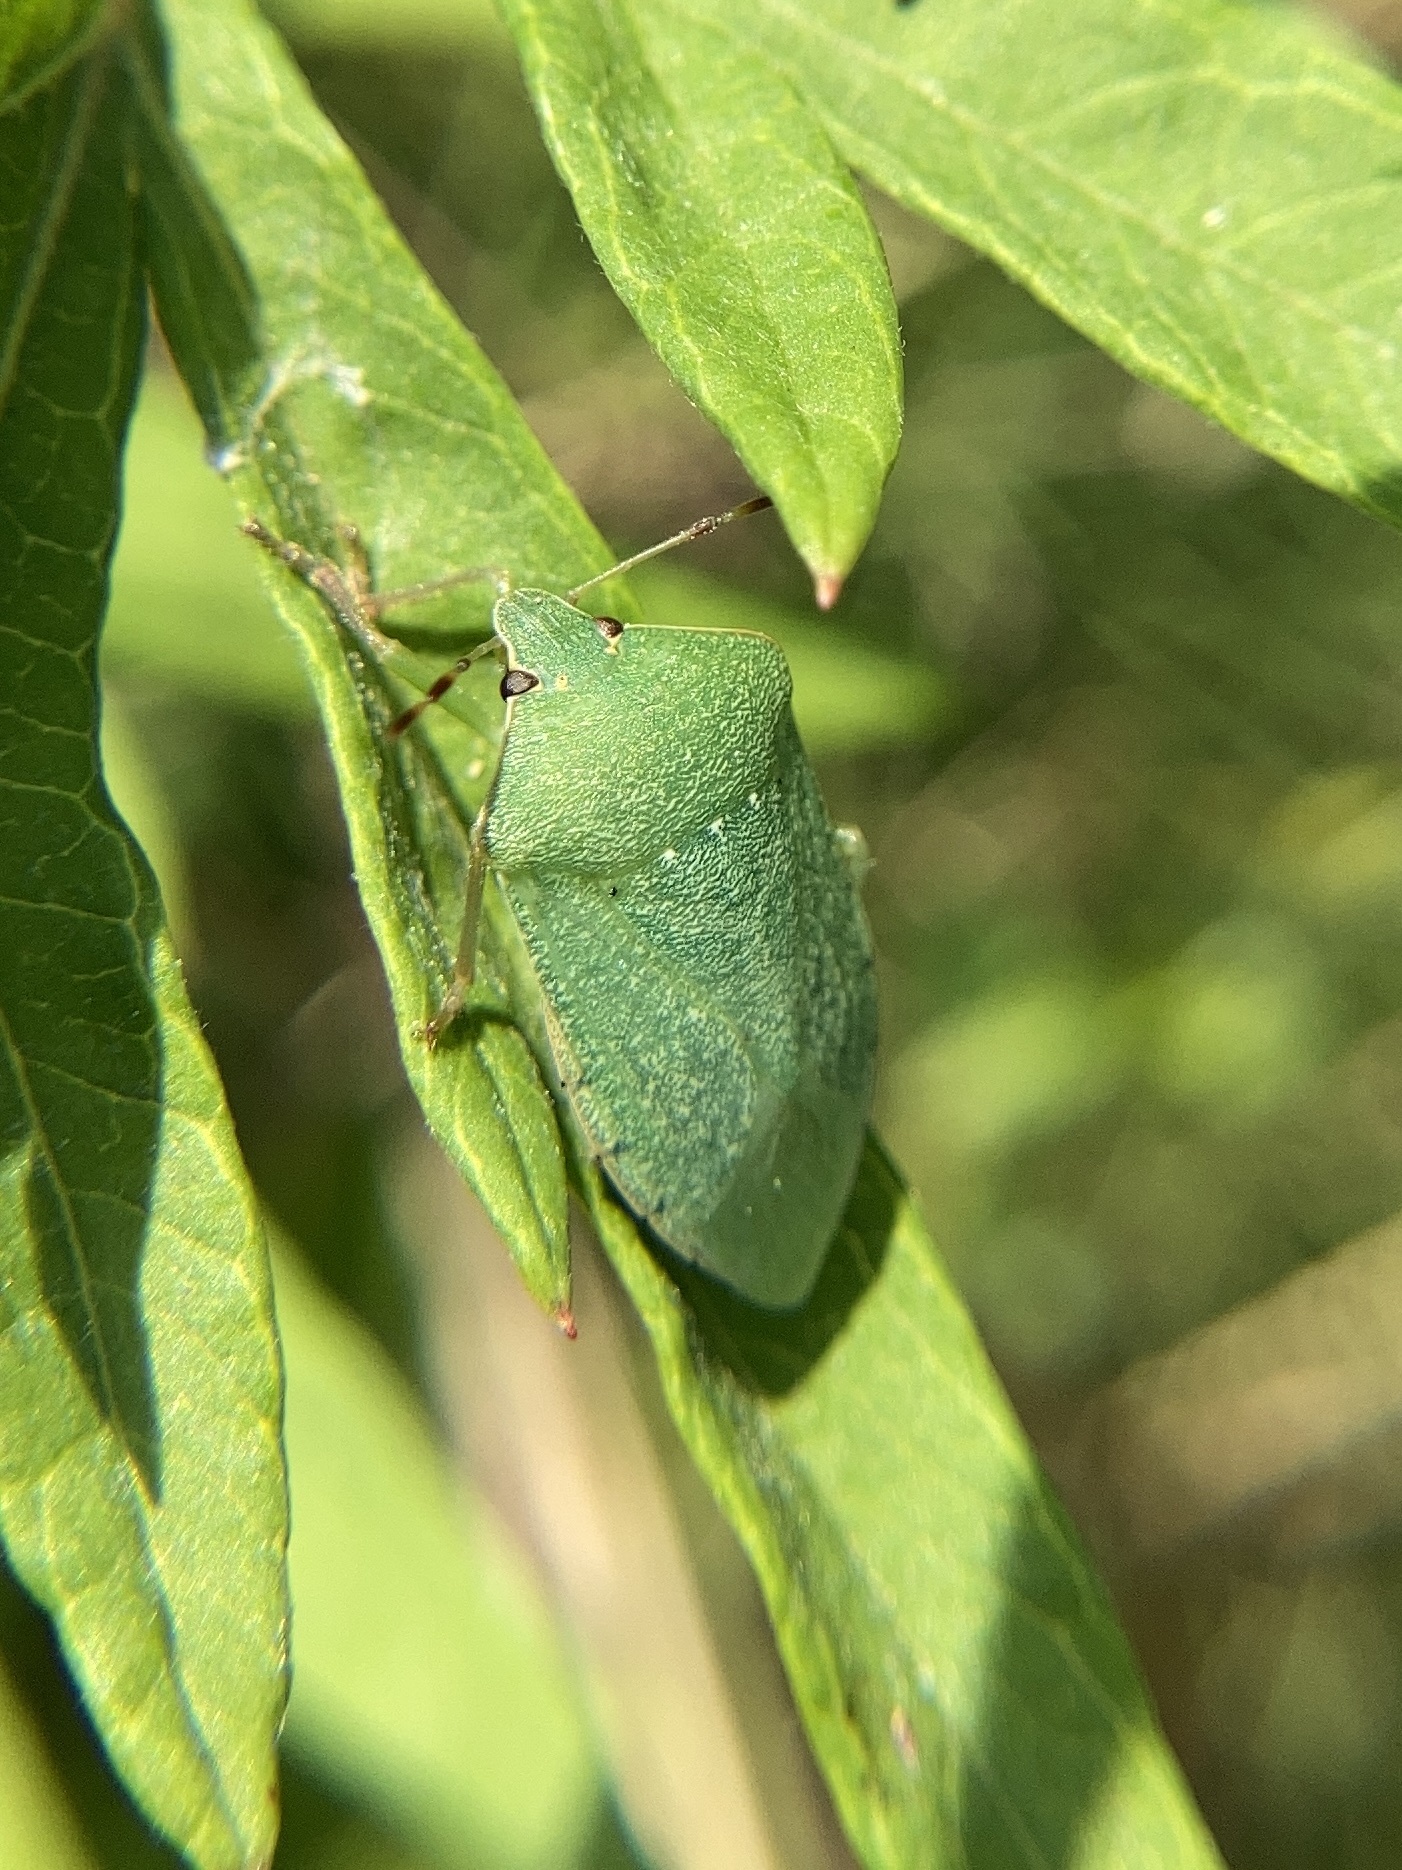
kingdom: Animalia
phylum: Arthropoda
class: Insecta
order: Hemiptera
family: Pentatomidae
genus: Nezara
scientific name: Nezara viridula
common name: Southern green stink bug
